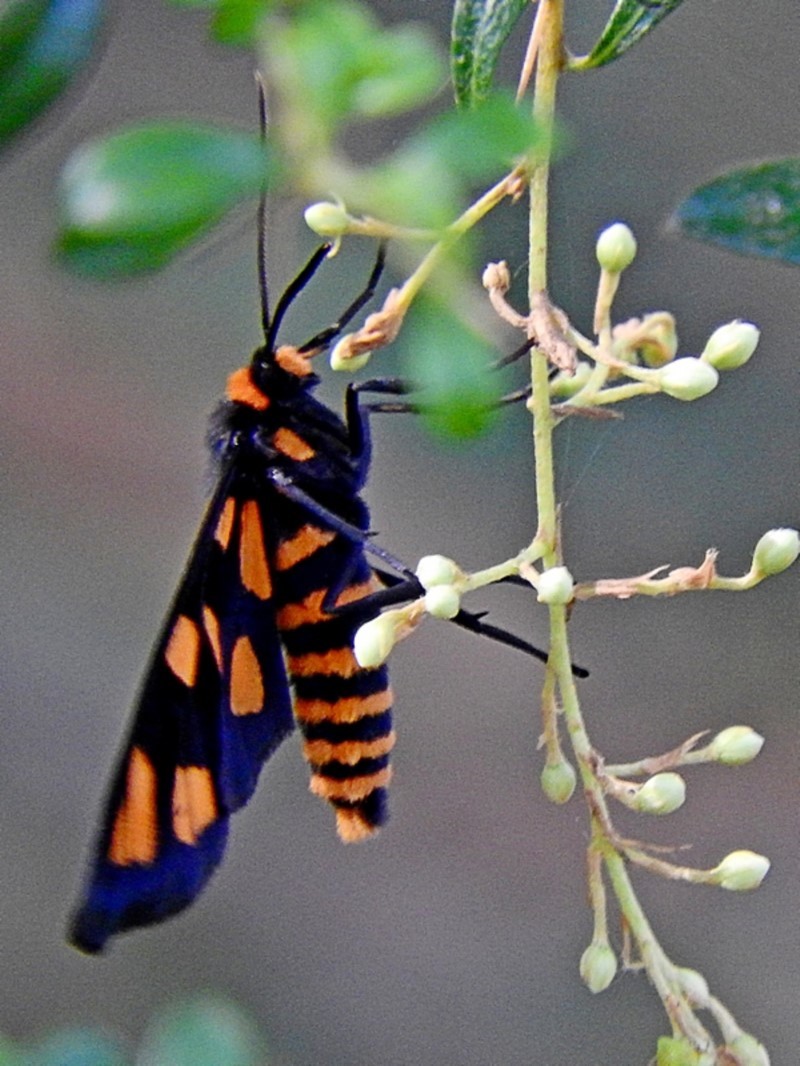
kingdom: Animalia
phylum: Arthropoda
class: Insecta
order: Lepidoptera
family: Erebidae
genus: Amata
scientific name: Amata nigriceps
